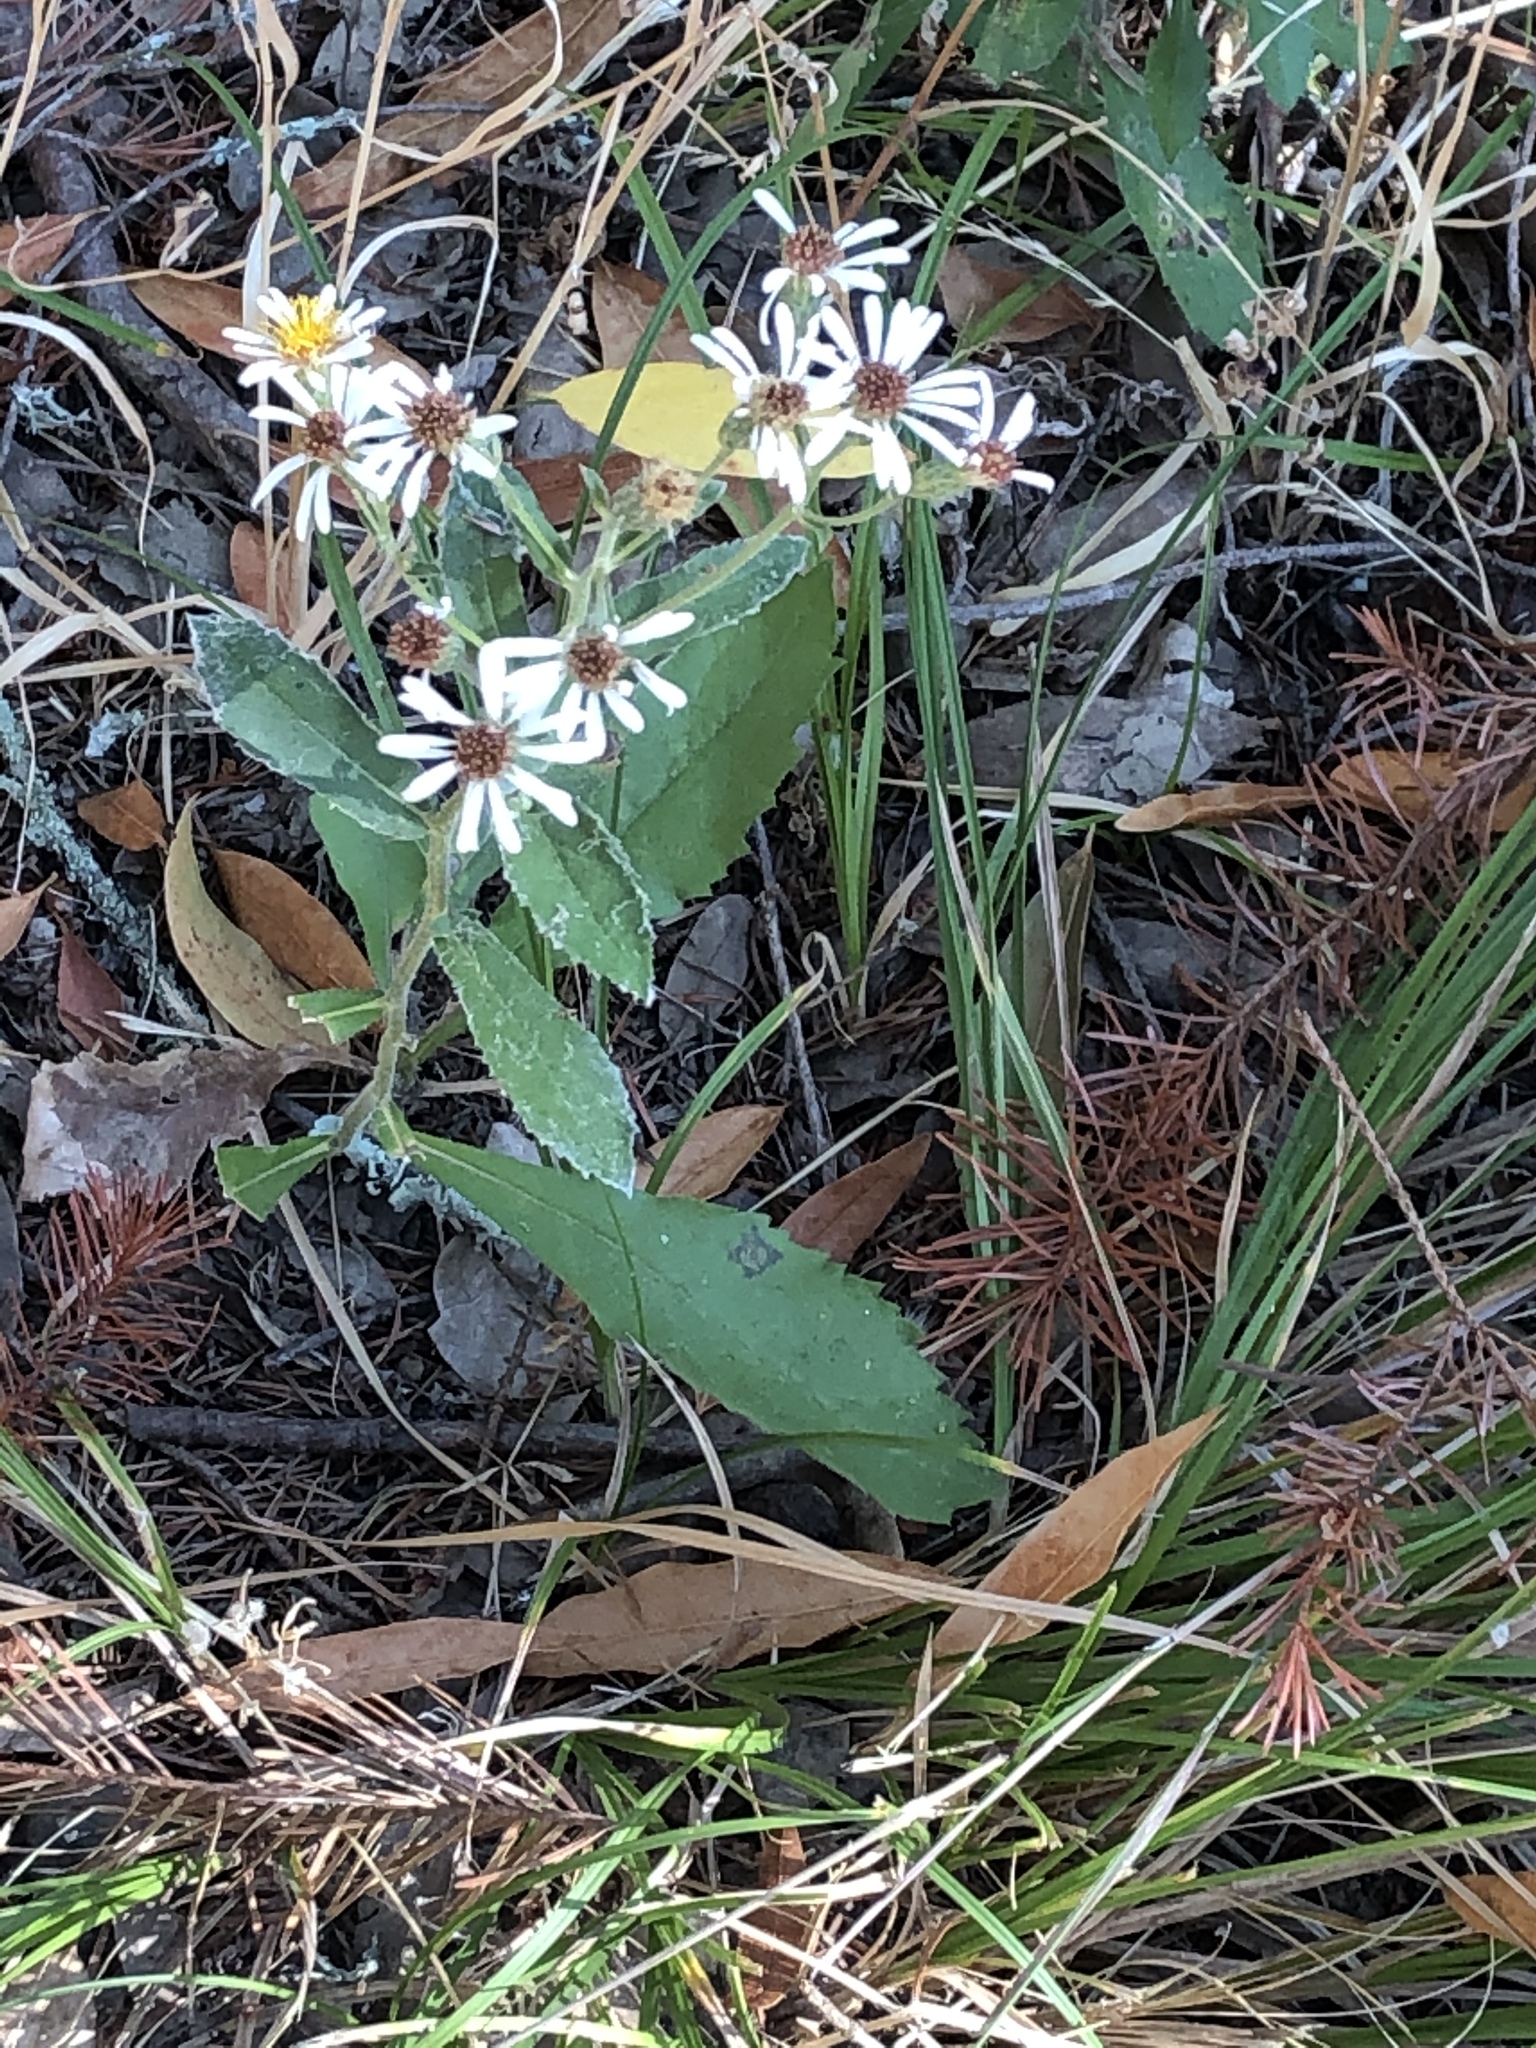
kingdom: Plantae
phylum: Tracheophyta
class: Magnoliopsida
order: Asterales
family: Asteraceae
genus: Eurybia
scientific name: Eurybia radulina
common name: Rough-leaved aster
